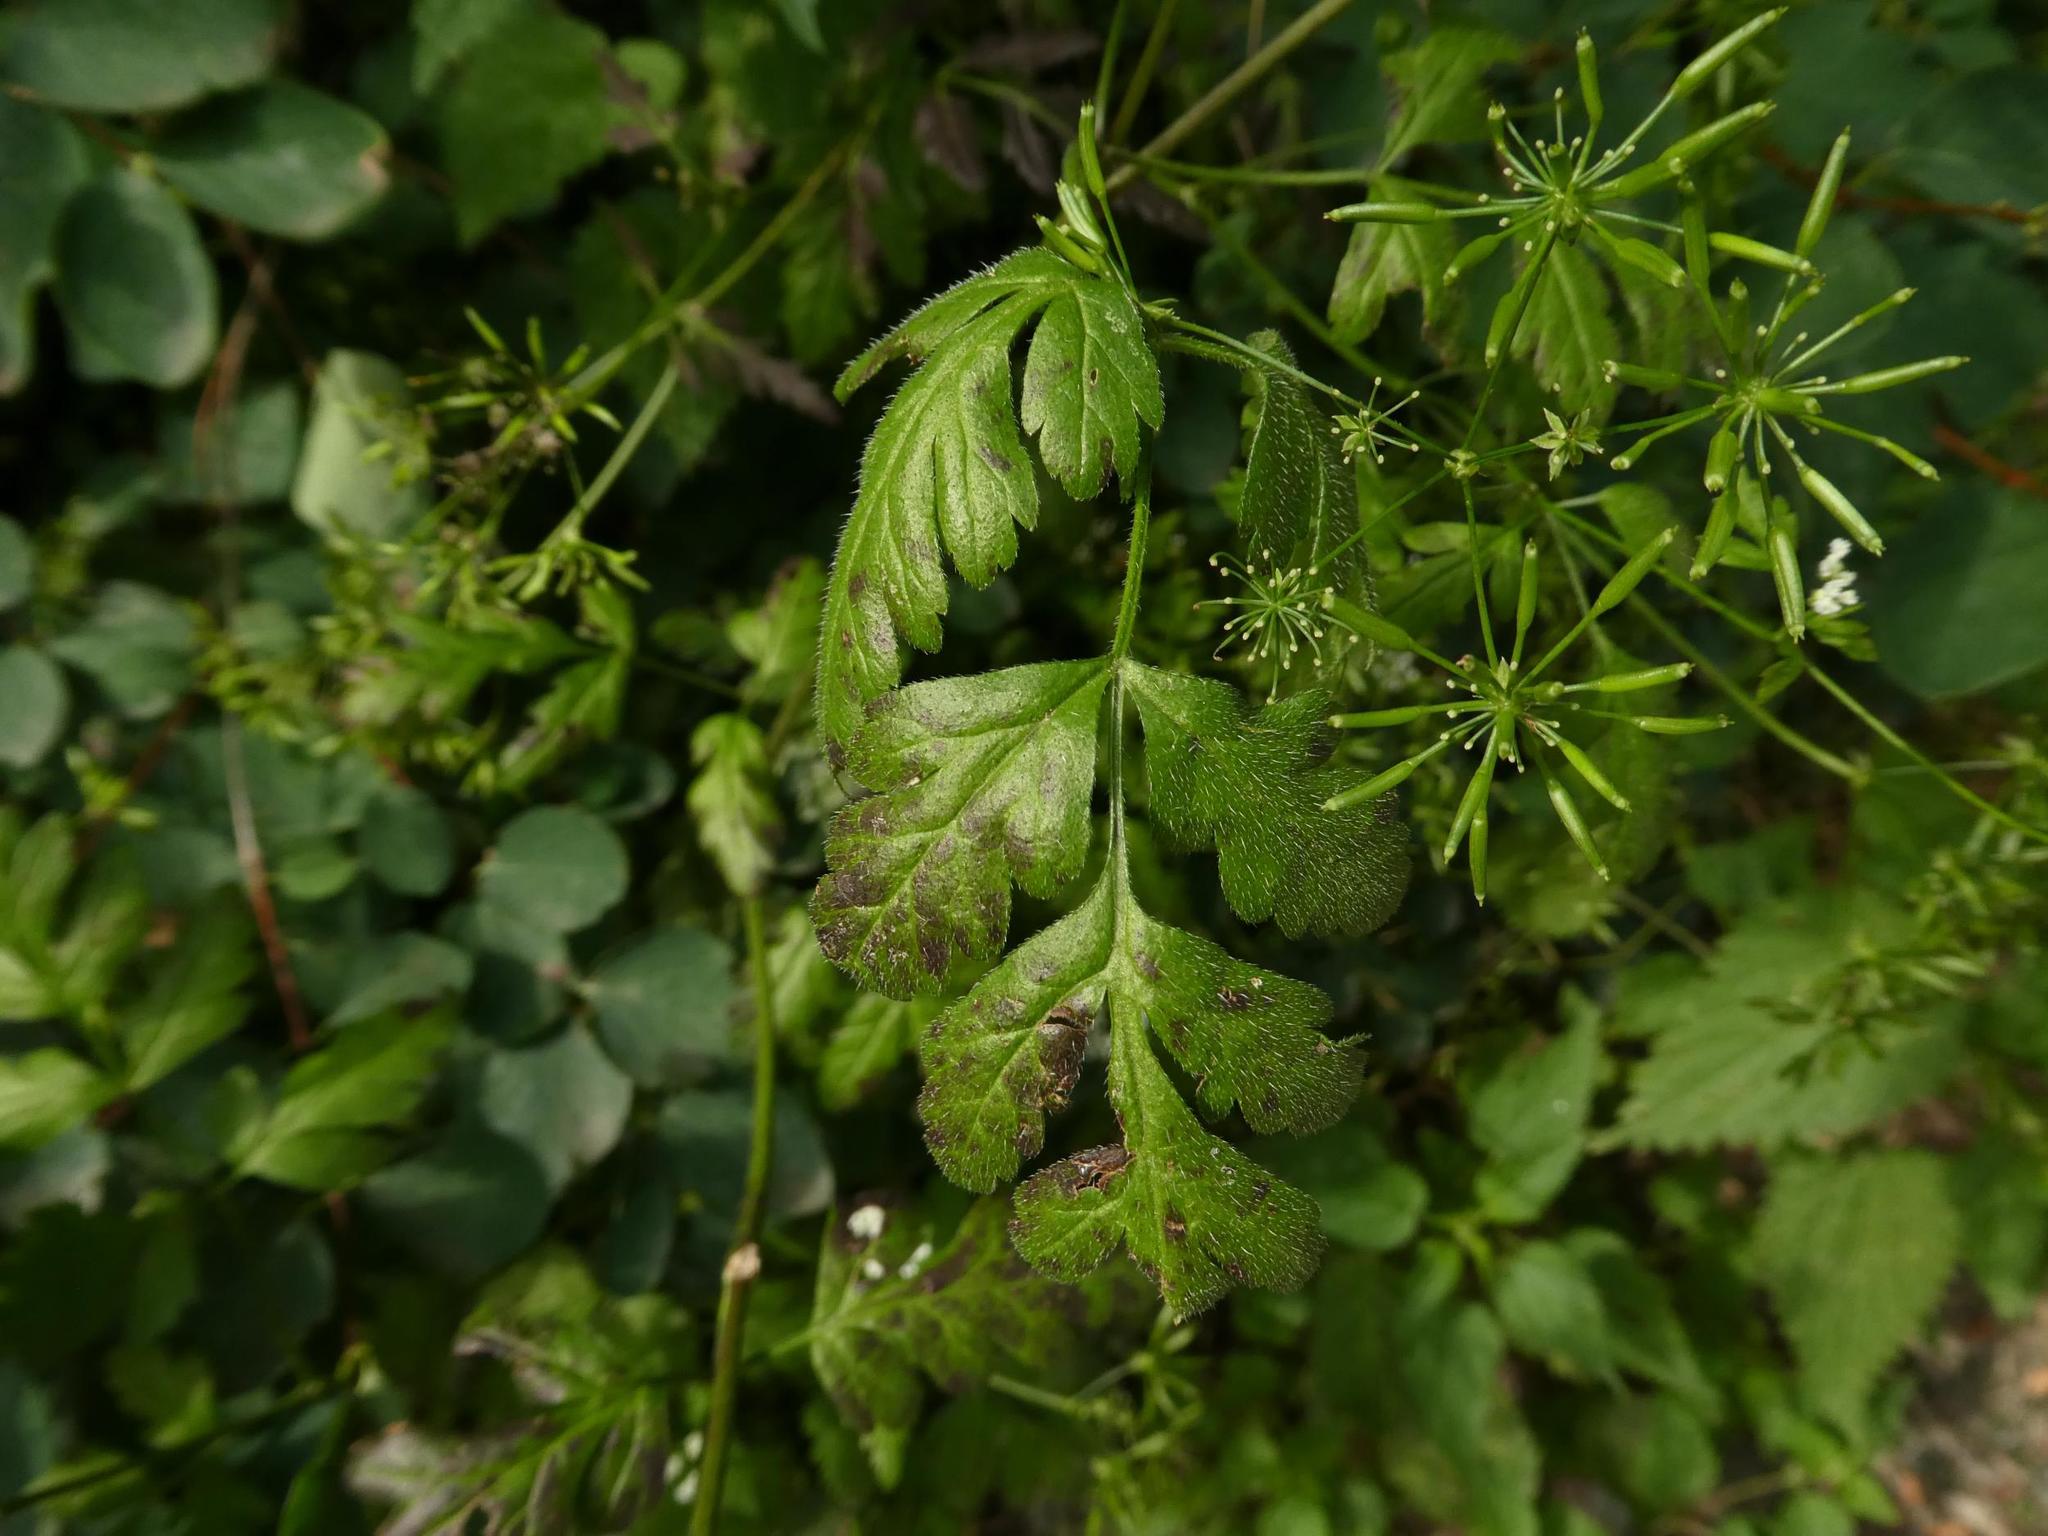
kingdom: Plantae
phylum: Tracheophyta
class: Magnoliopsida
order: Apiales
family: Apiaceae
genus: Chaerophyllum
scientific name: Chaerophyllum temulum
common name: Rough chervil
